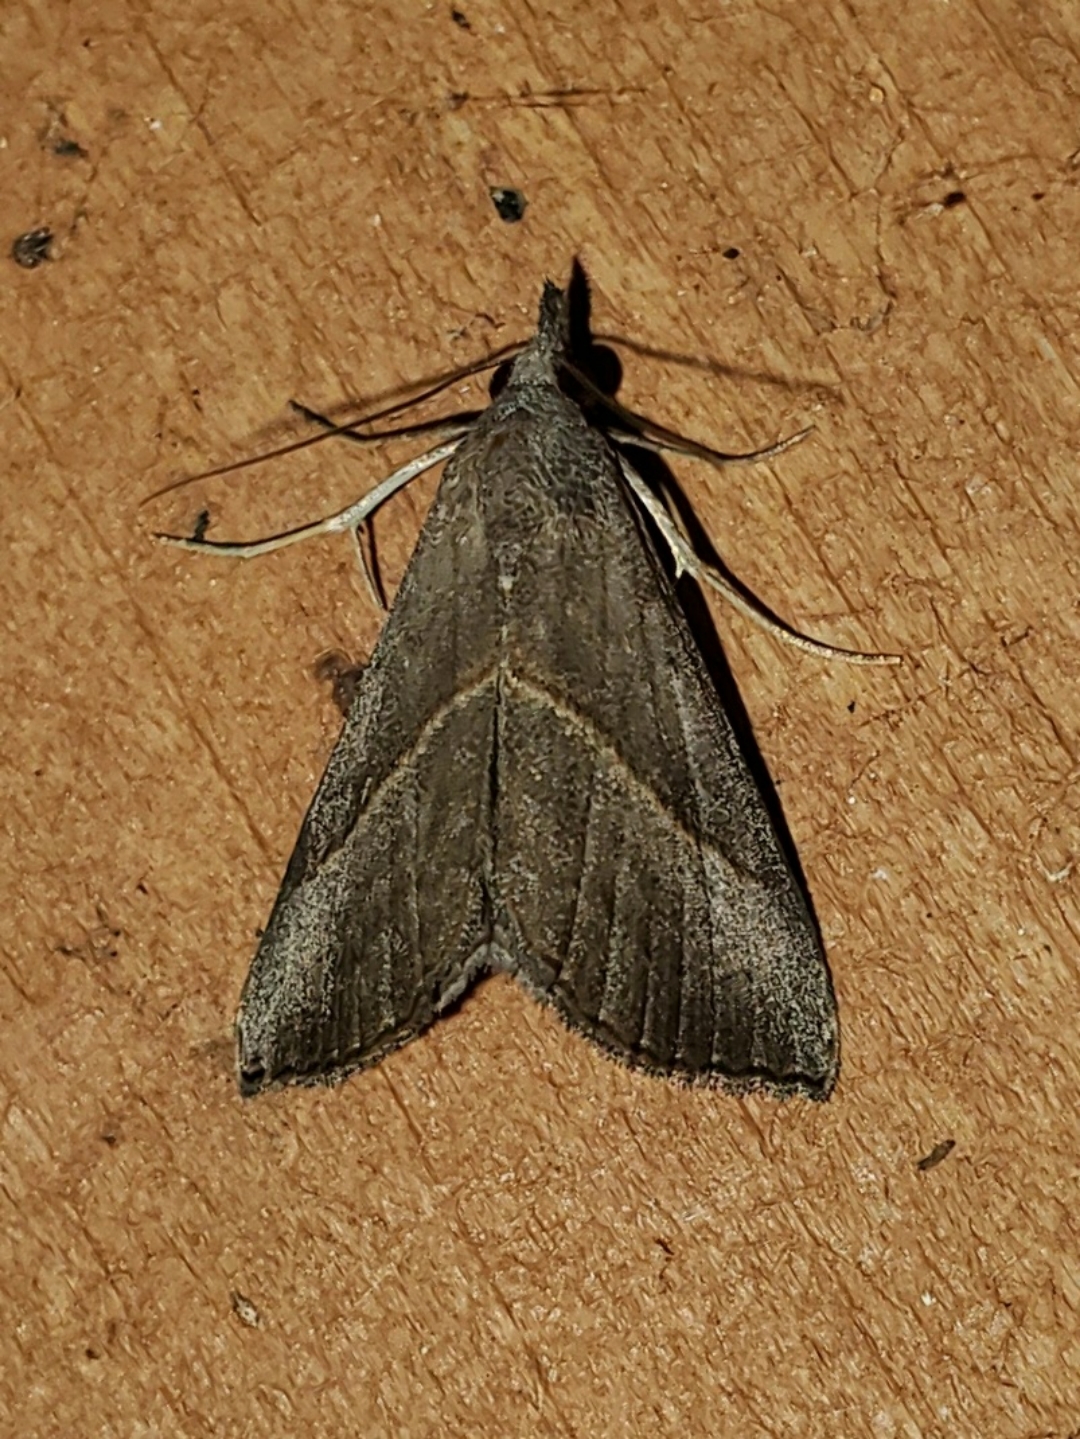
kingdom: Animalia
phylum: Arthropoda
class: Insecta
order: Lepidoptera
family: Erebidae
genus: Hypena
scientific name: Hypena degesalis
